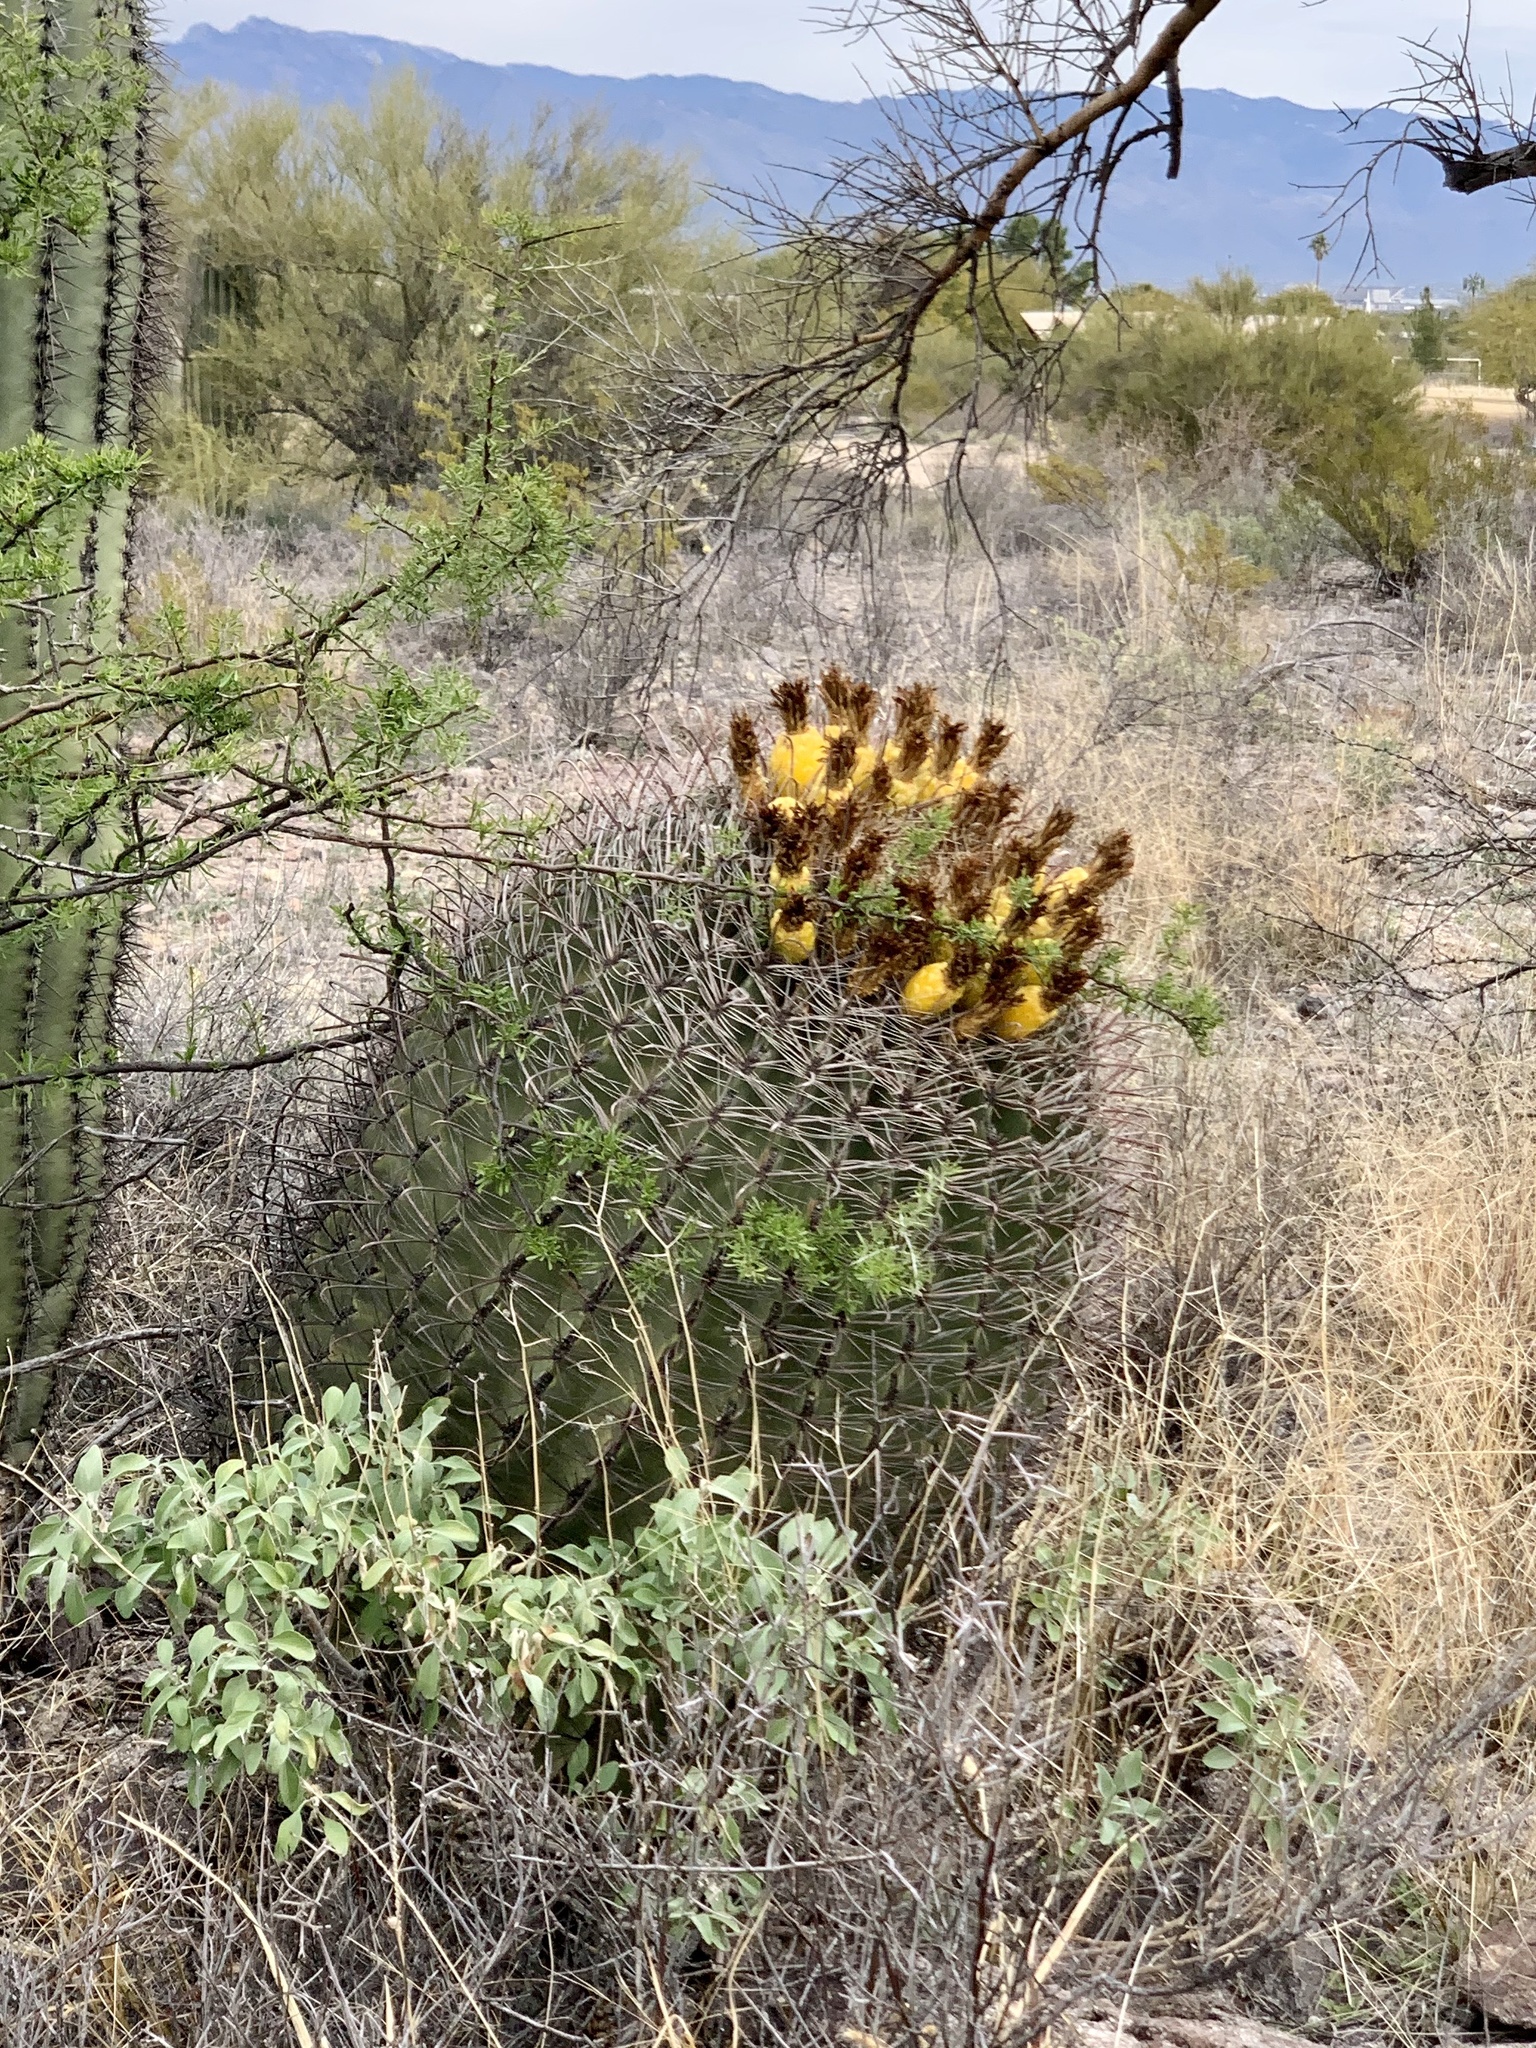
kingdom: Plantae
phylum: Tracheophyta
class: Magnoliopsida
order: Caryophyllales
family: Cactaceae
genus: Ferocactus
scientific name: Ferocactus wislizeni
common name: Candy barrel cactus
